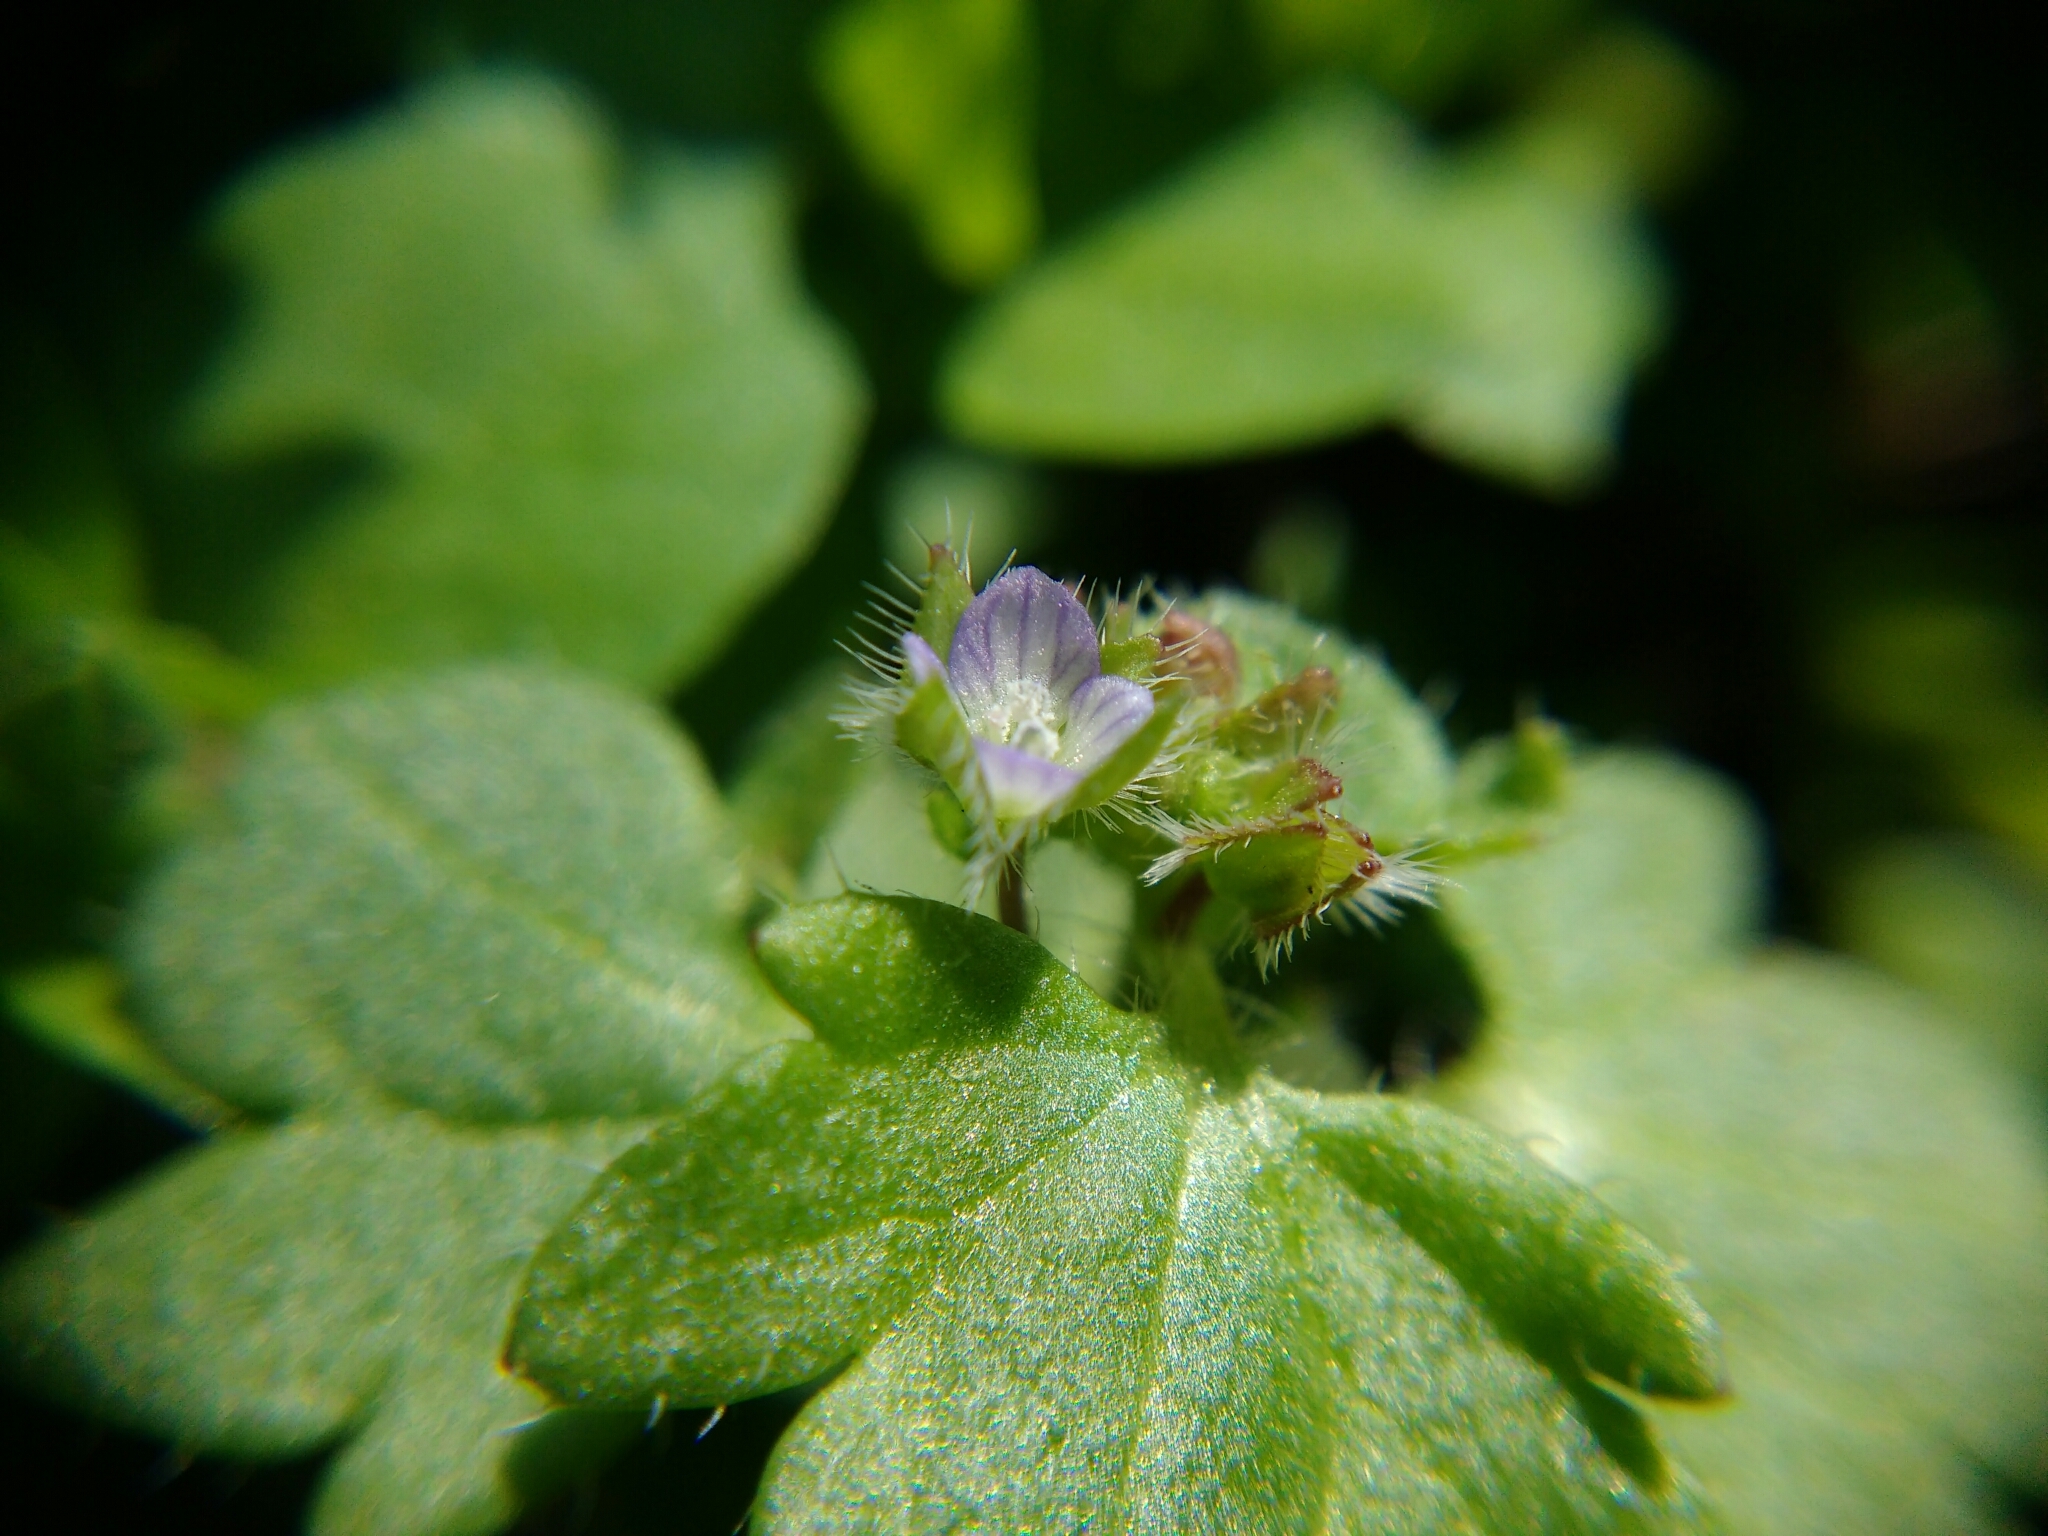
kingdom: Plantae
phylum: Tracheophyta
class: Magnoliopsida
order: Lamiales
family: Plantaginaceae
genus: Veronica
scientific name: Veronica sublobata
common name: False ivy-leaved speedwell
